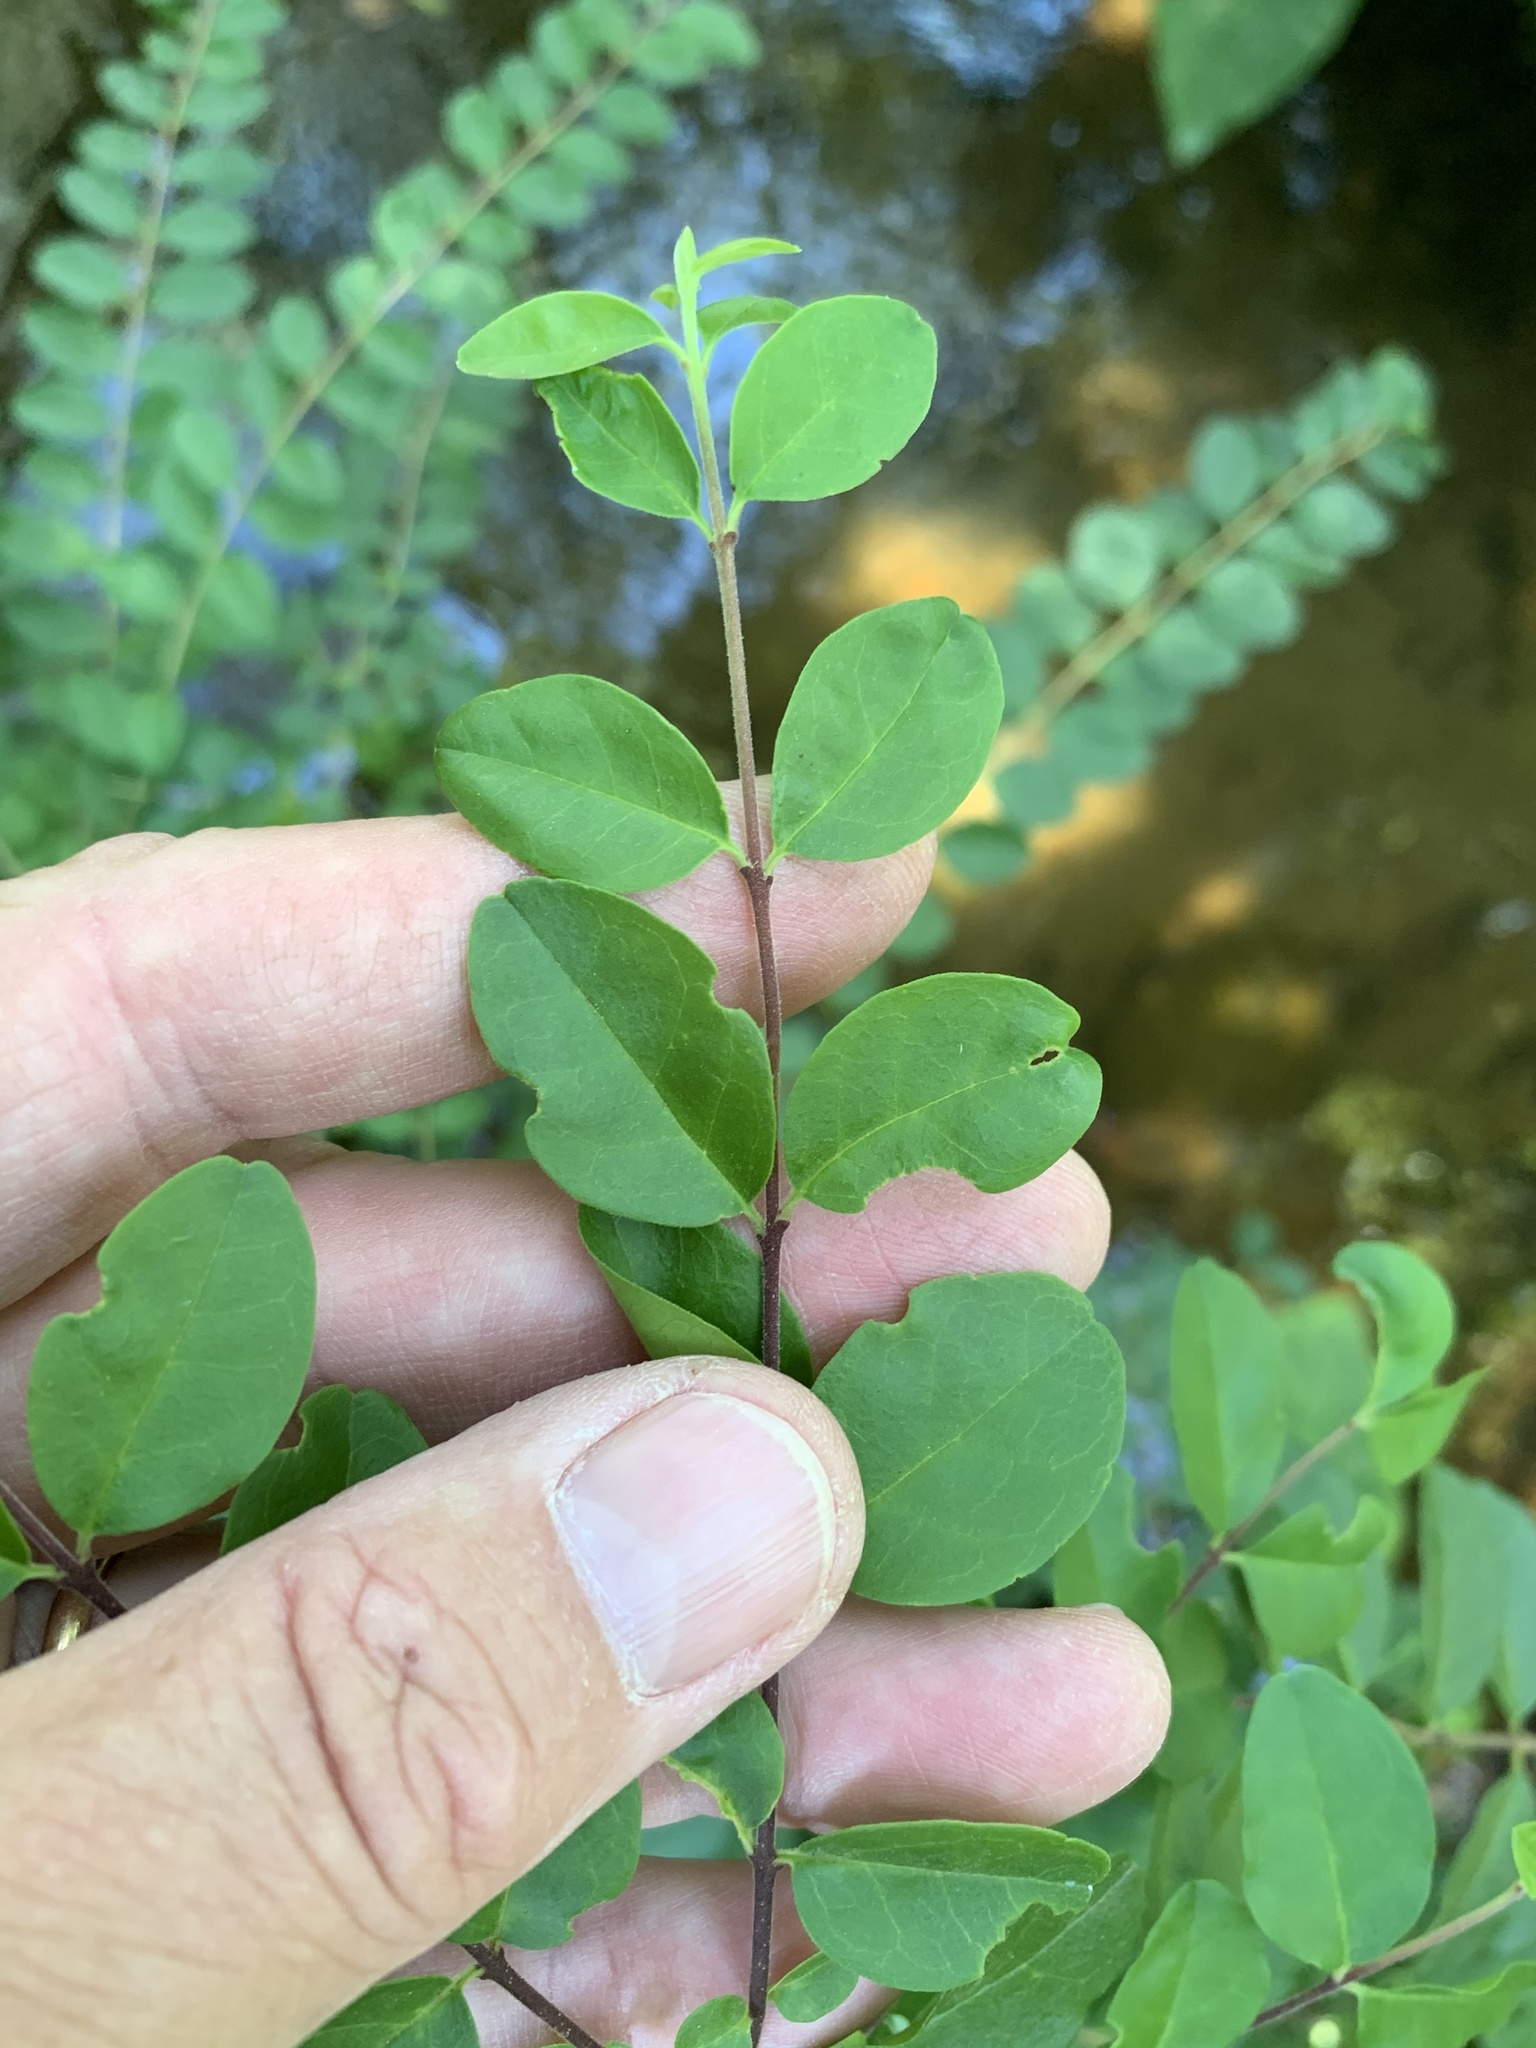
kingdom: Plantae
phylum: Tracheophyta
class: Magnoliopsida
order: Lamiales
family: Oleaceae
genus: Ligustrum
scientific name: Ligustrum sinense
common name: Chinese privet
